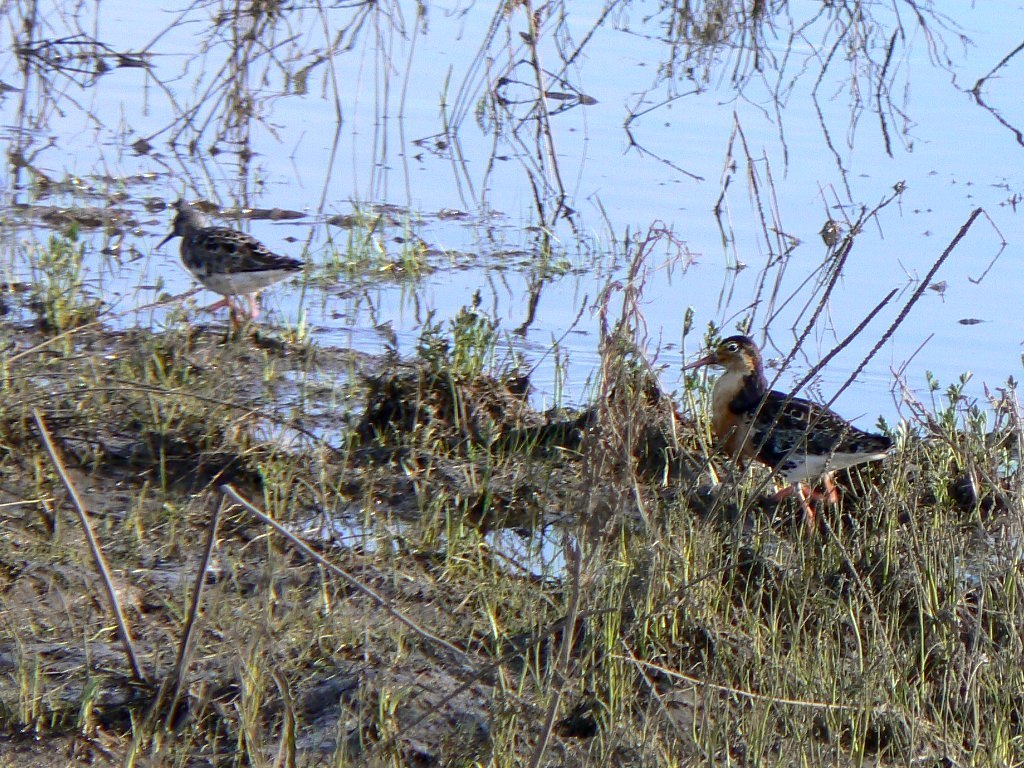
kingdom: Animalia
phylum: Chordata
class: Aves
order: Charadriiformes
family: Scolopacidae
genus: Calidris
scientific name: Calidris pugnax
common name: Ruff
